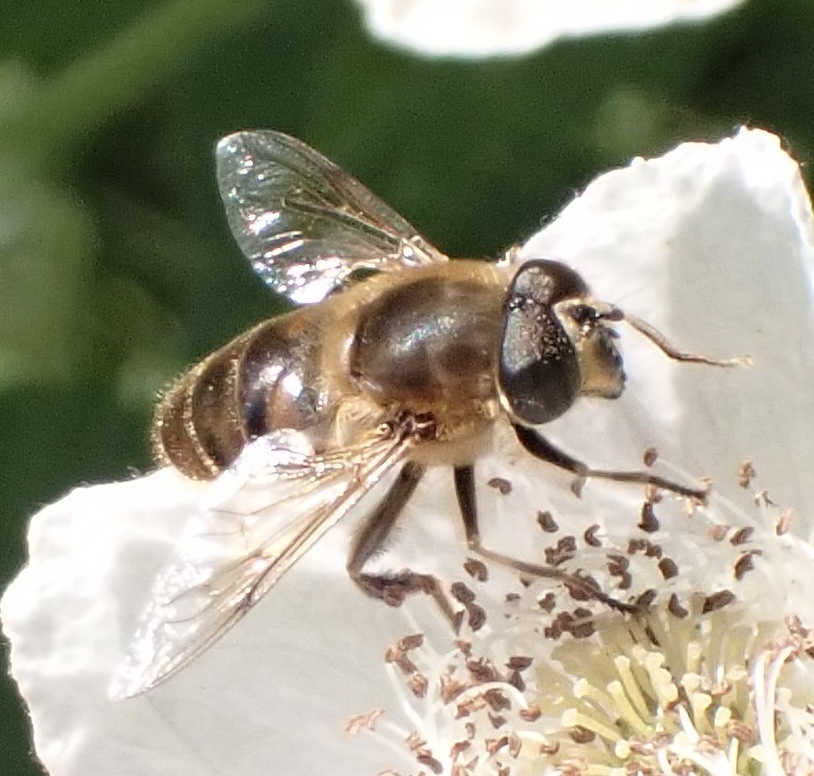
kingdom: Animalia
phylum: Arthropoda
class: Insecta
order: Diptera
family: Syrphidae
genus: Eristalis
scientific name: Eristalis tenax
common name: Drone fly
